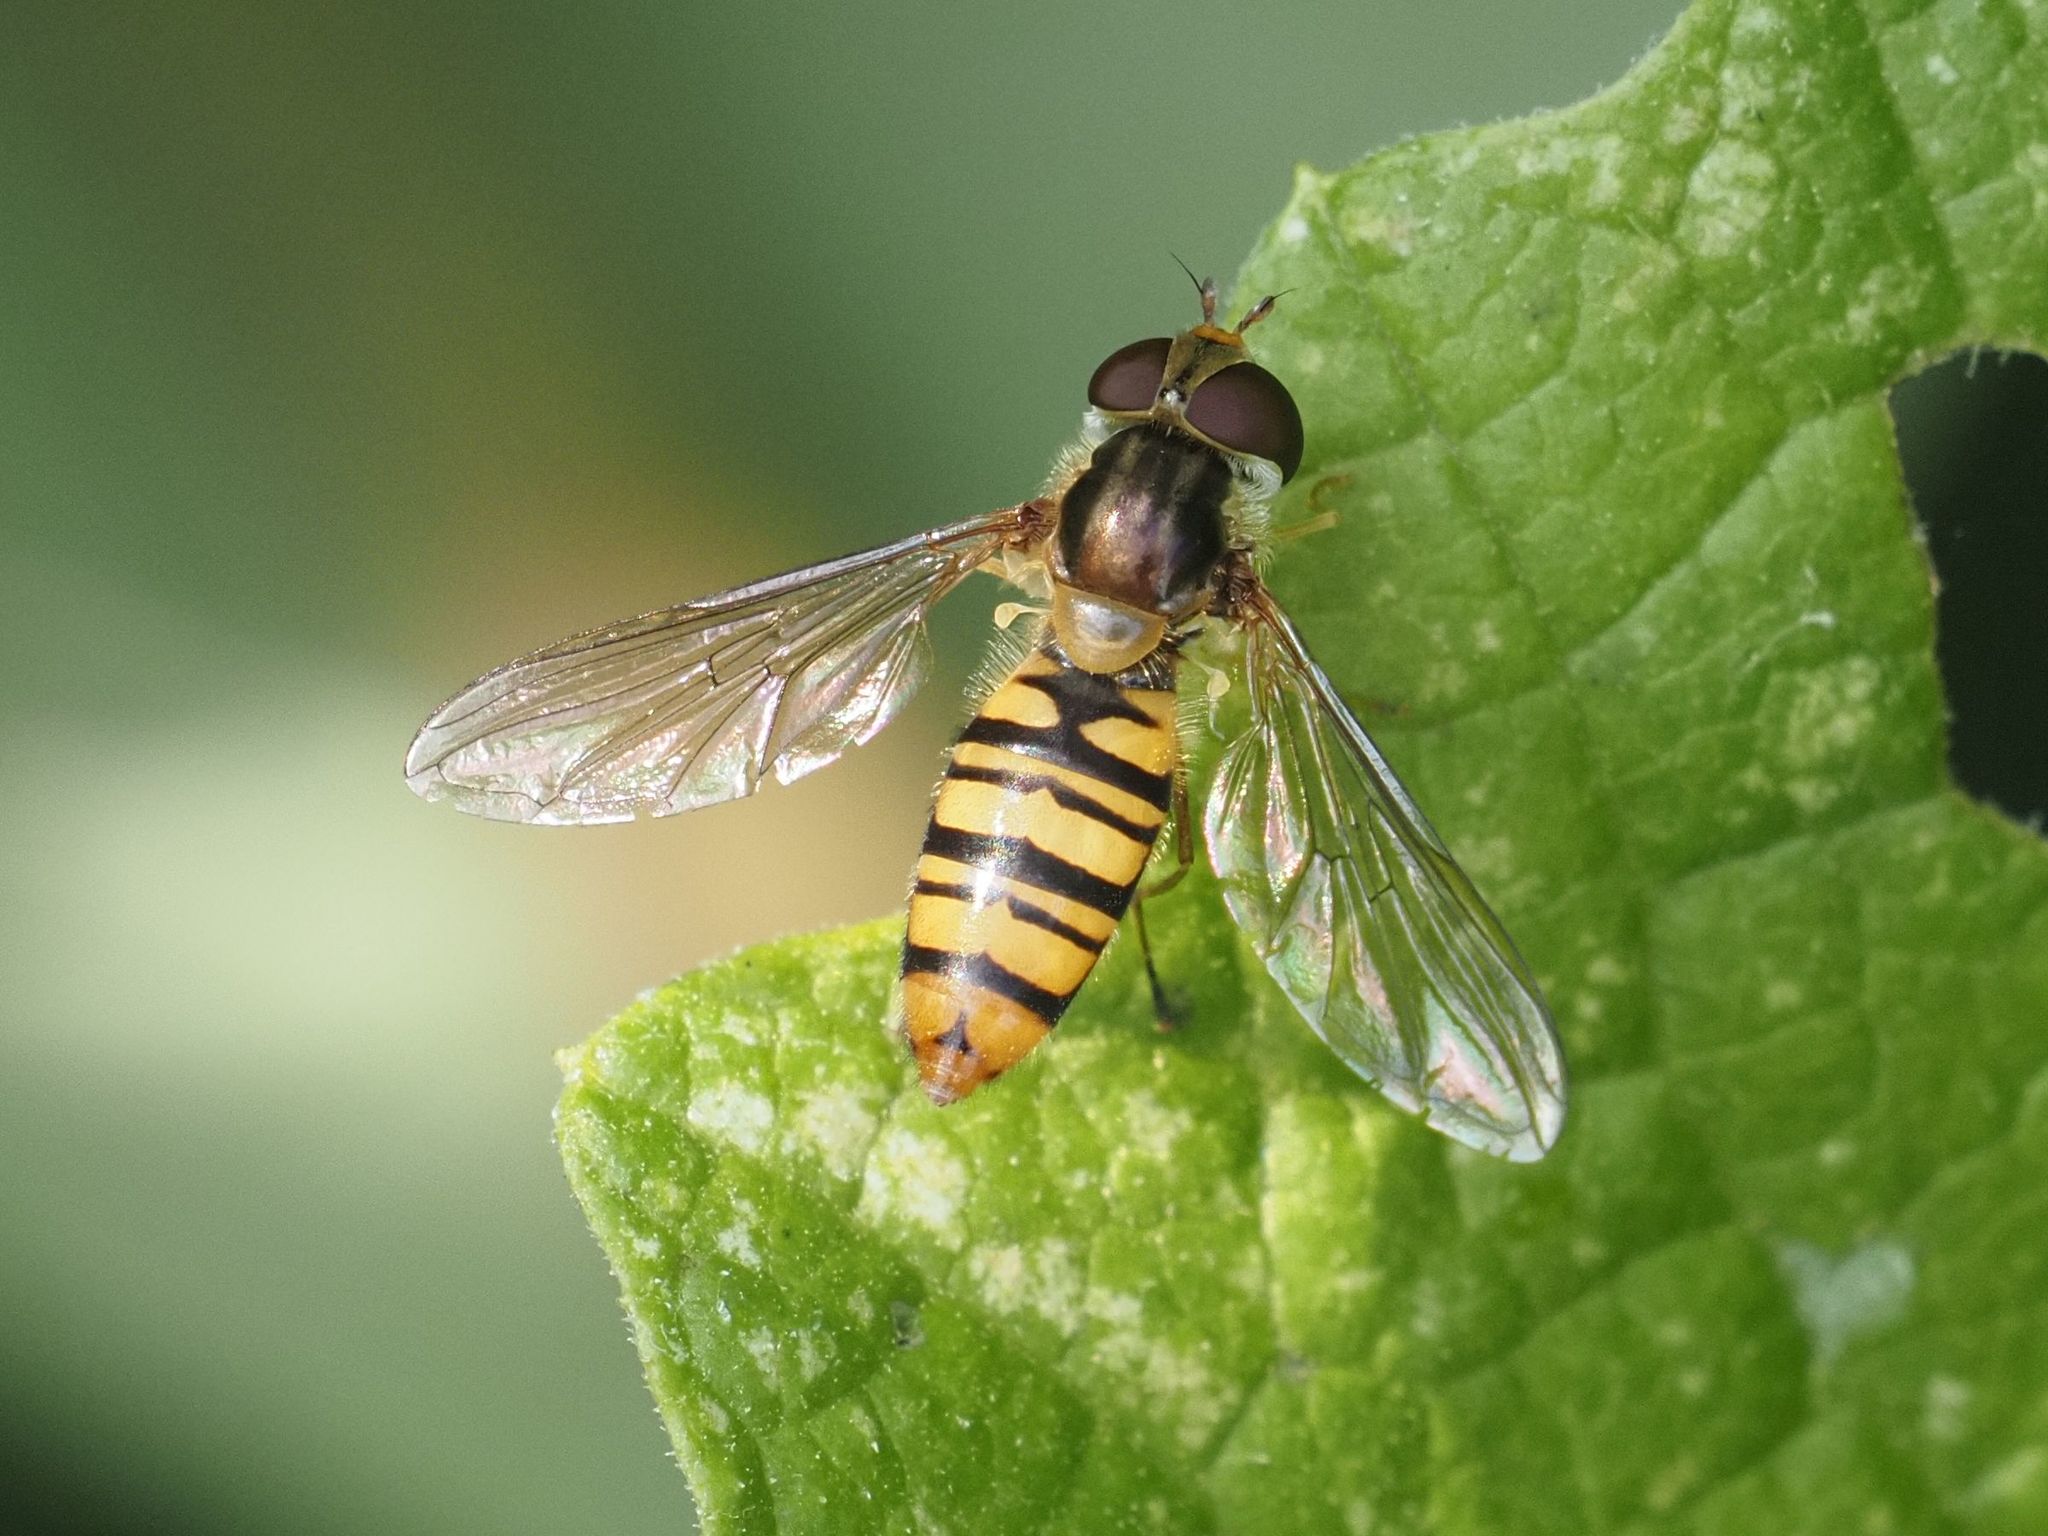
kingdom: Animalia
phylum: Arthropoda
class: Insecta
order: Diptera
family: Syrphidae
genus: Episyrphus
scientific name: Episyrphus balteatus
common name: Marmalade hoverfly
